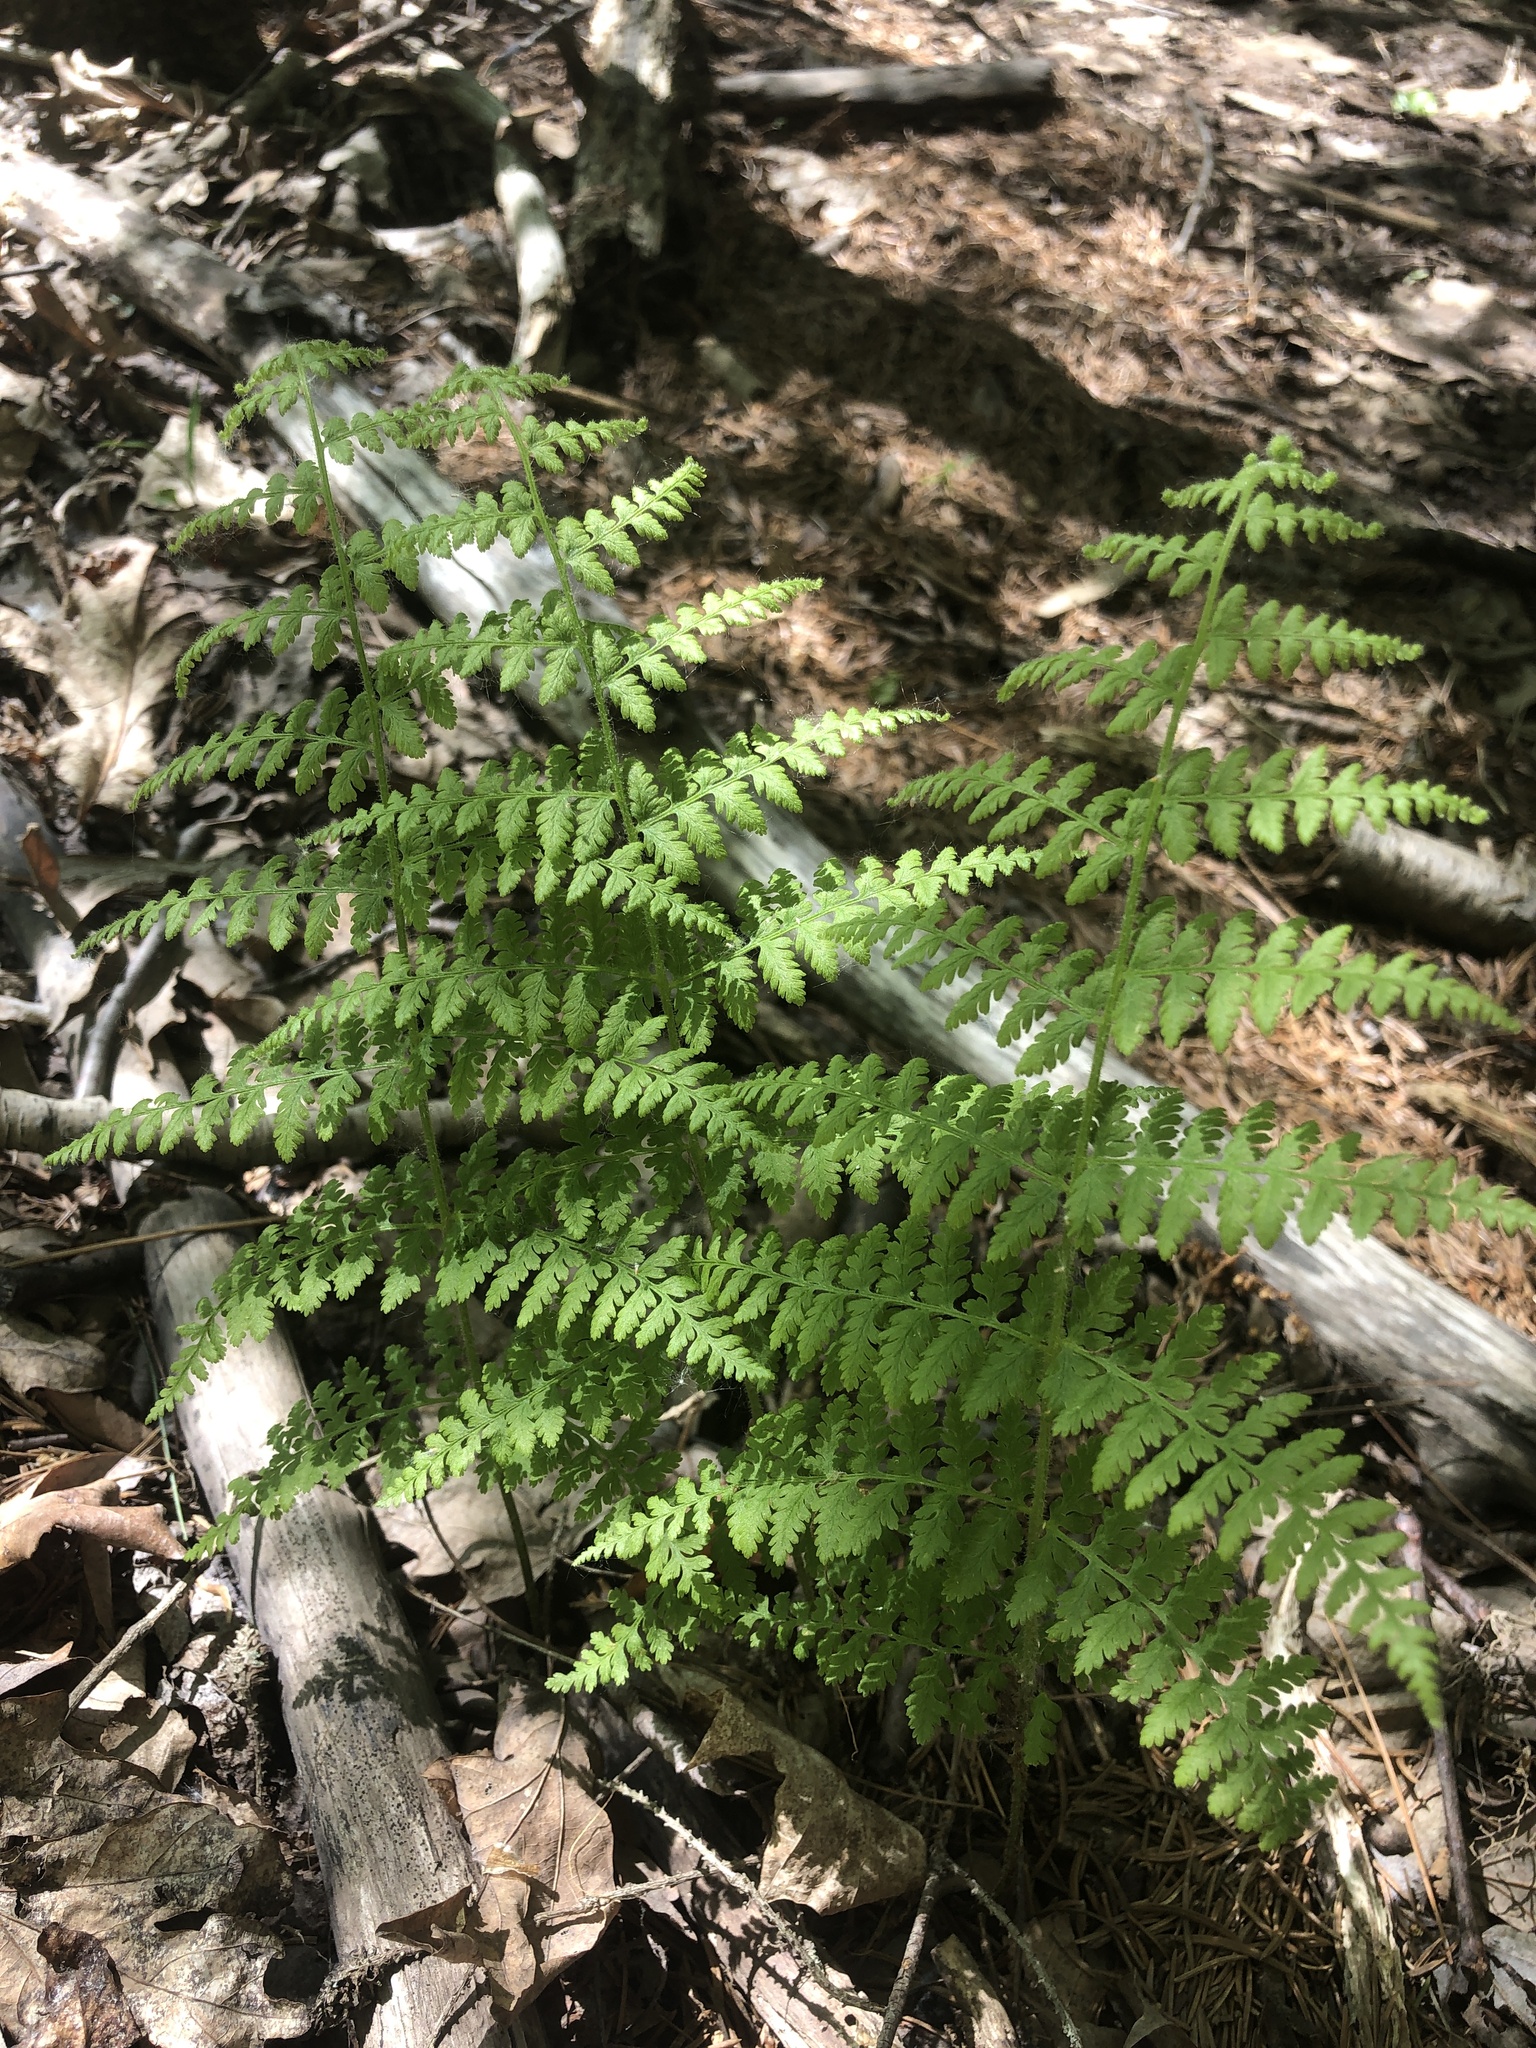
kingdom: Plantae
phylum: Tracheophyta
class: Polypodiopsida
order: Polypodiales
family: Dennstaedtiaceae
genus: Sitobolium
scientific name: Sitobolium punctilobum
